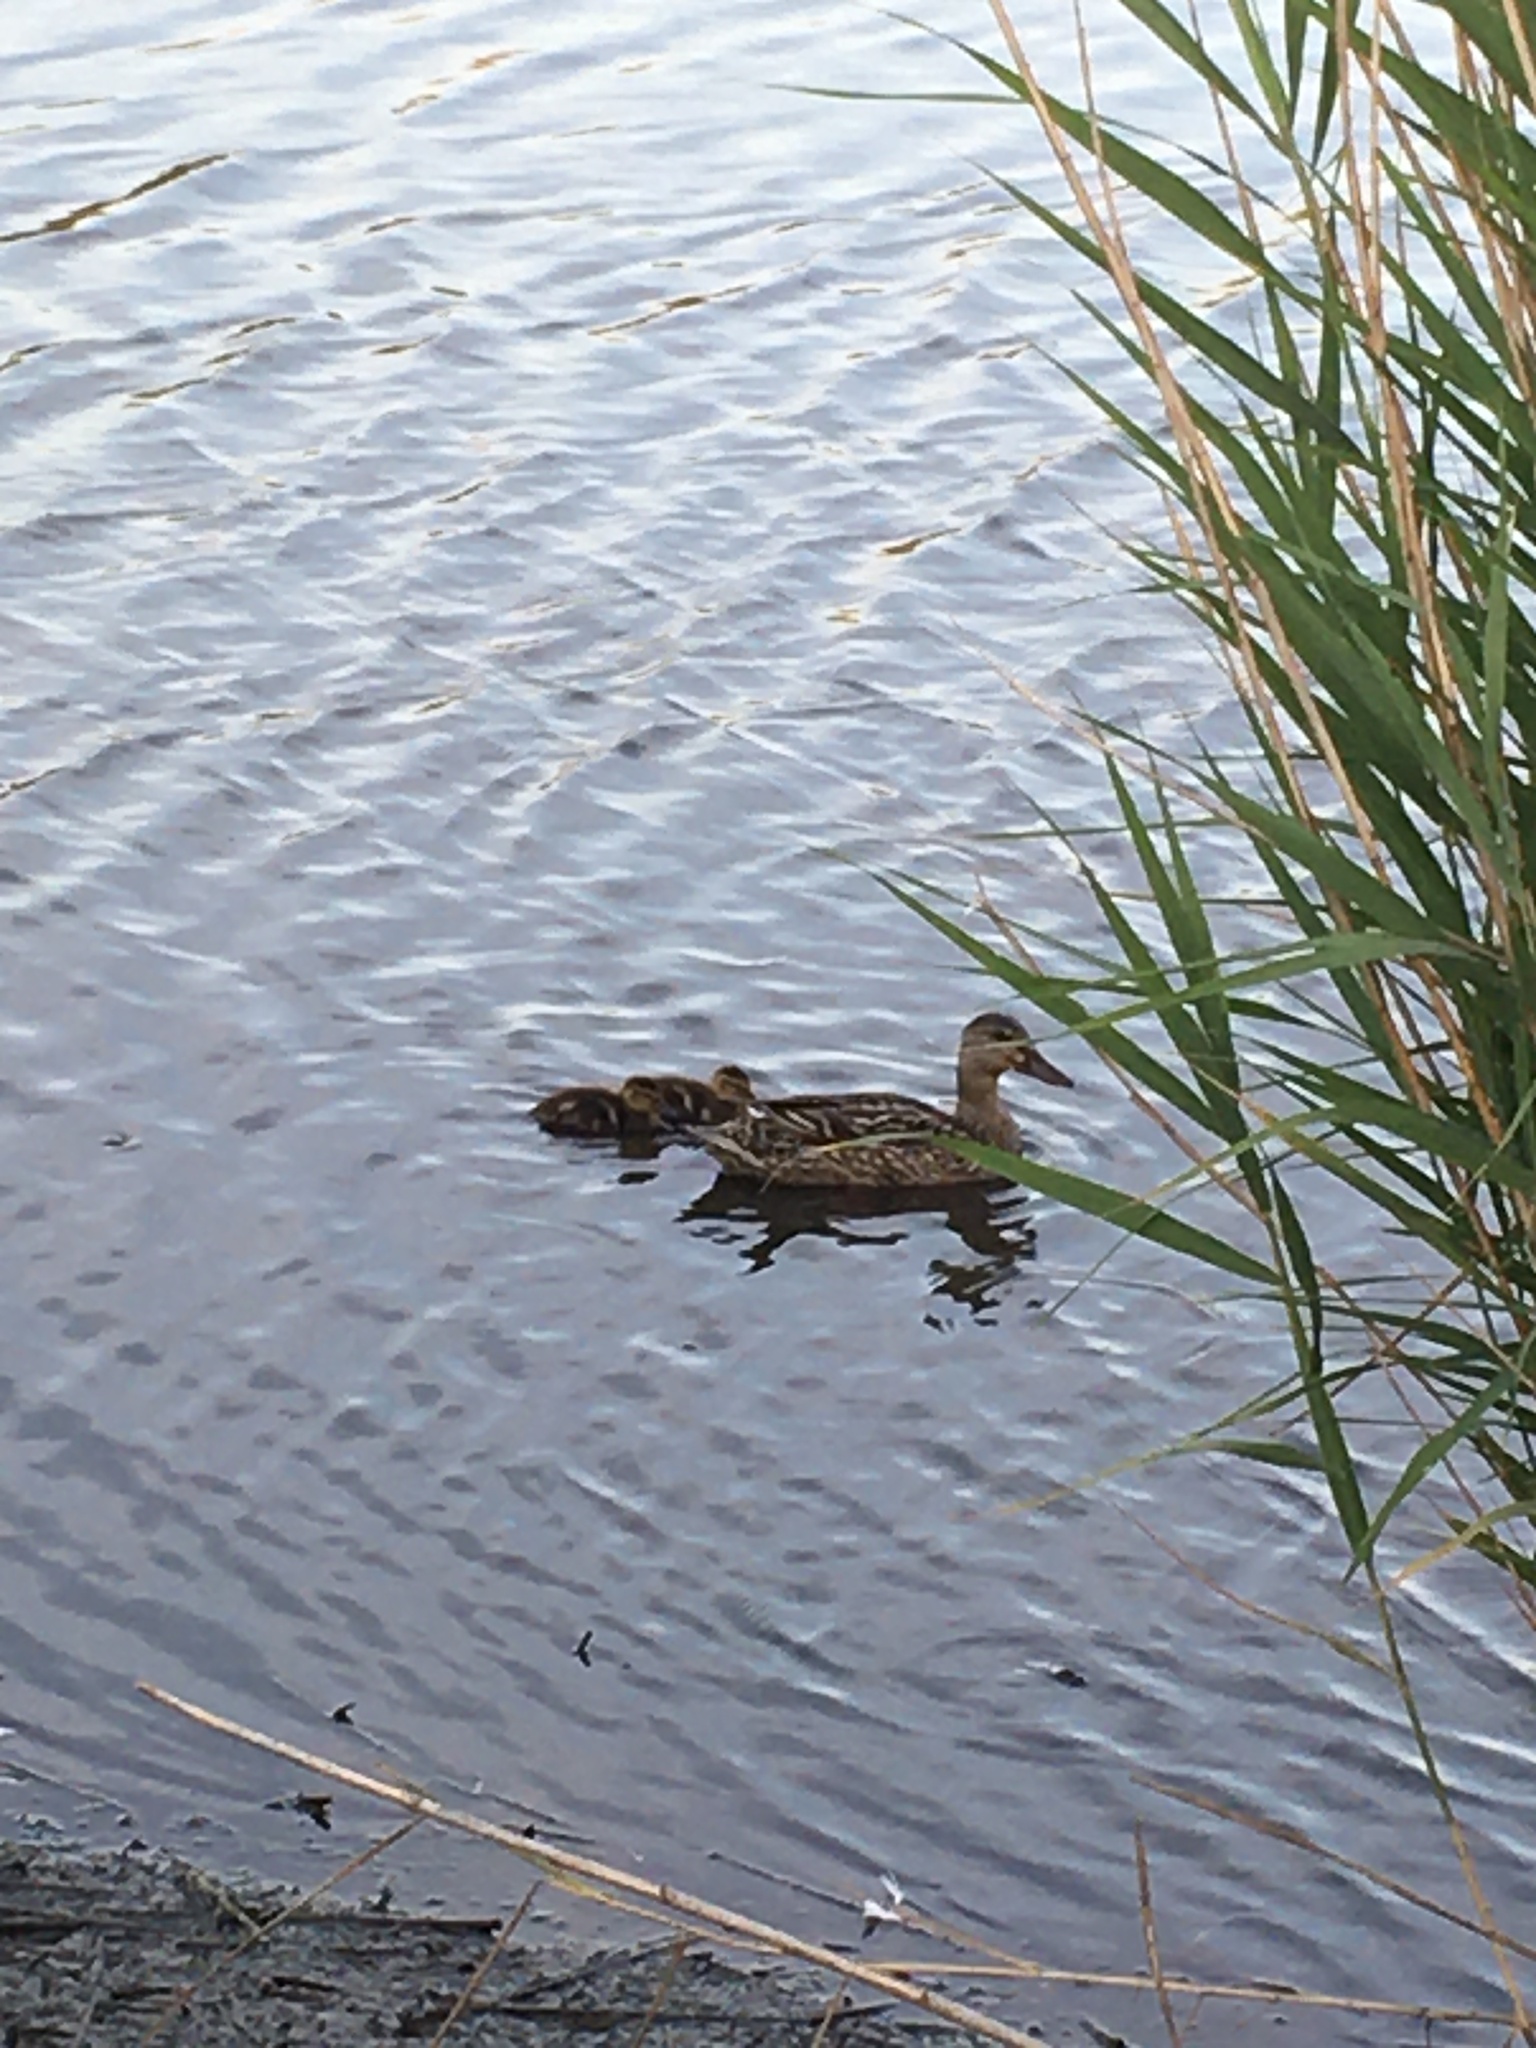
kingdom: Animalia
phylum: Chordata
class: Aves
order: Anseriformes
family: Anatidae
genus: Anas
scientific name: Anas platyrhynchos
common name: Mallard
